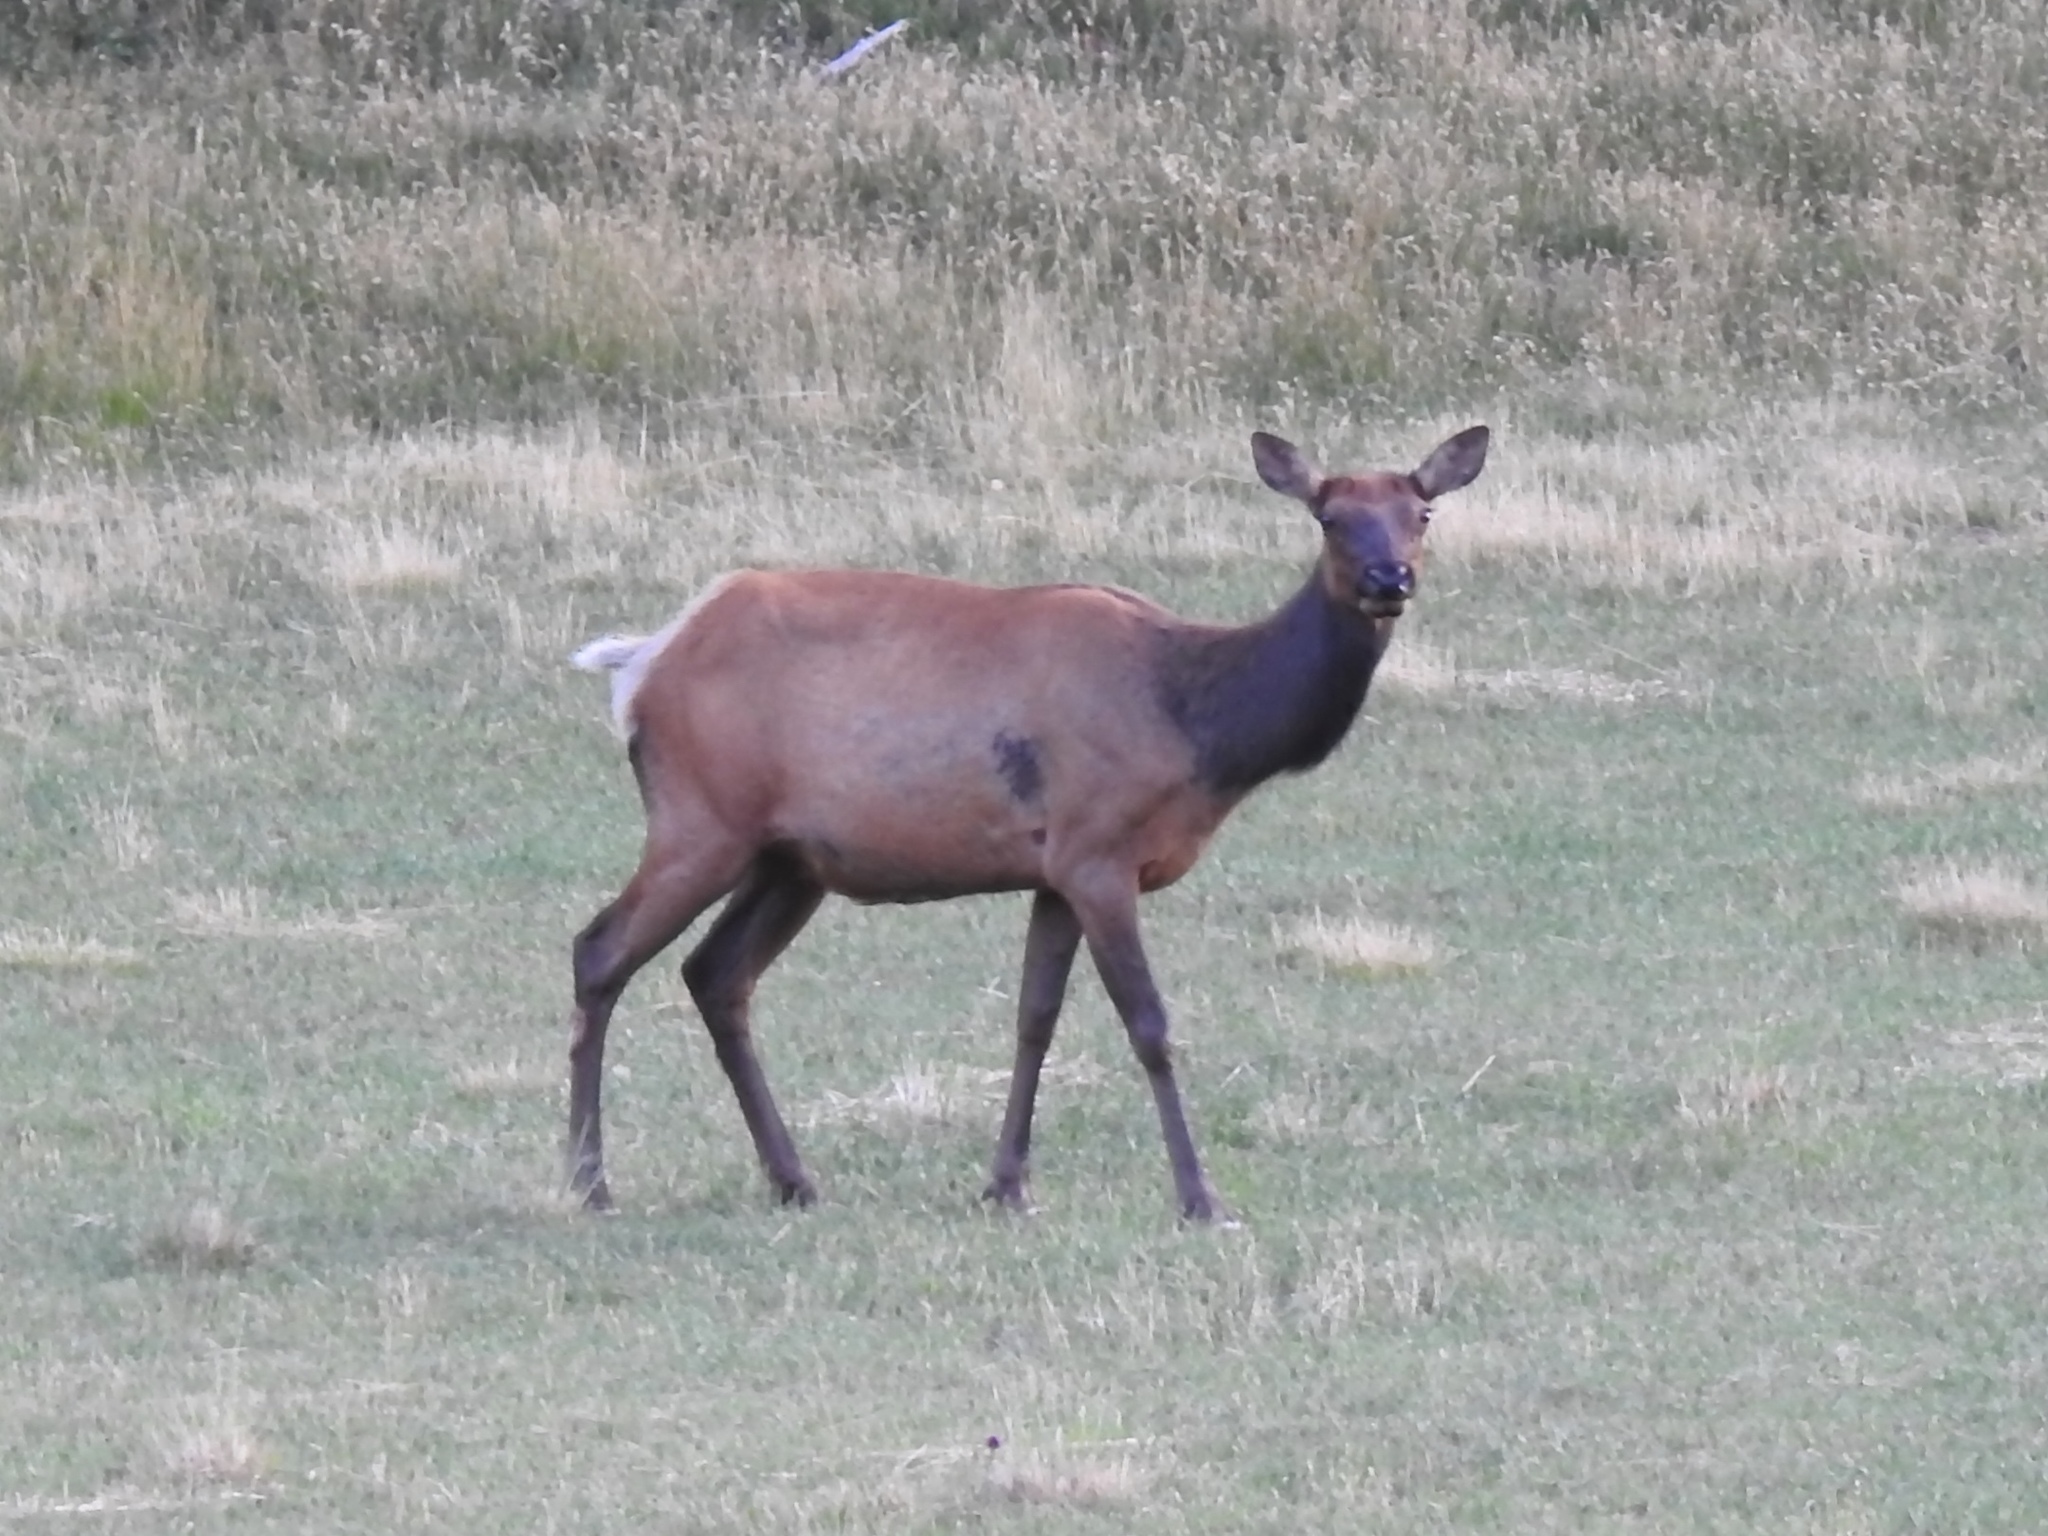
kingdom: Animalia
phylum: Chordata
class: Mammalia
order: Artiodactyla
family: Cervidae
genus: Cervus
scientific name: Cervus elaphus
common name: Red deer
